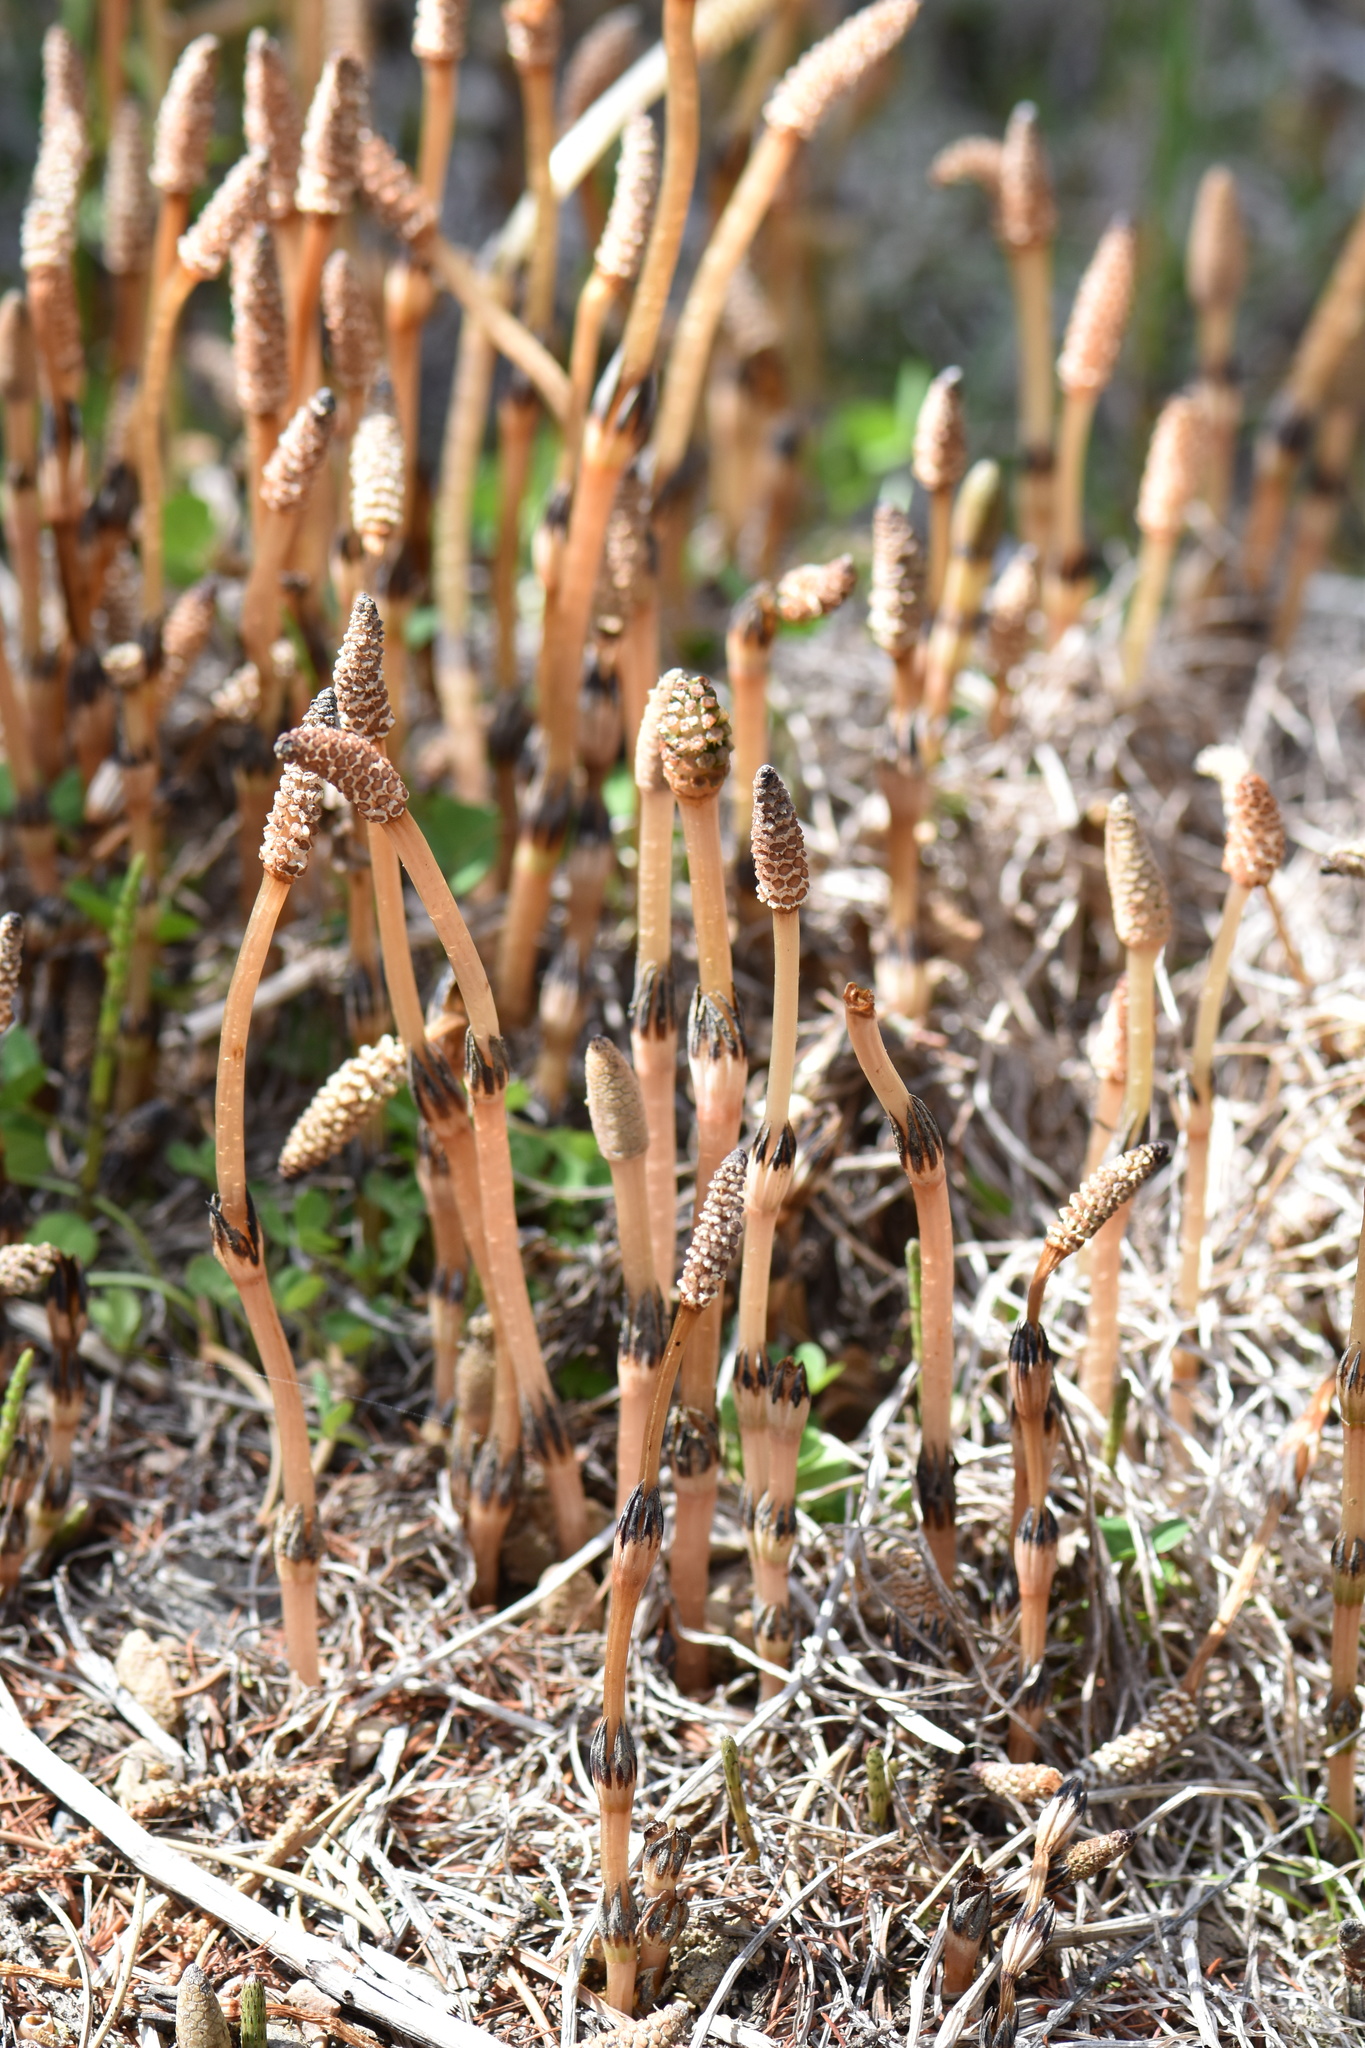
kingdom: Plantae
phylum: Tracheophyta
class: Polypodiopsida
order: Equisetales
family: Equisetaceae
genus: Equisetum
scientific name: Equisetum arvense
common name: Field horsetail
